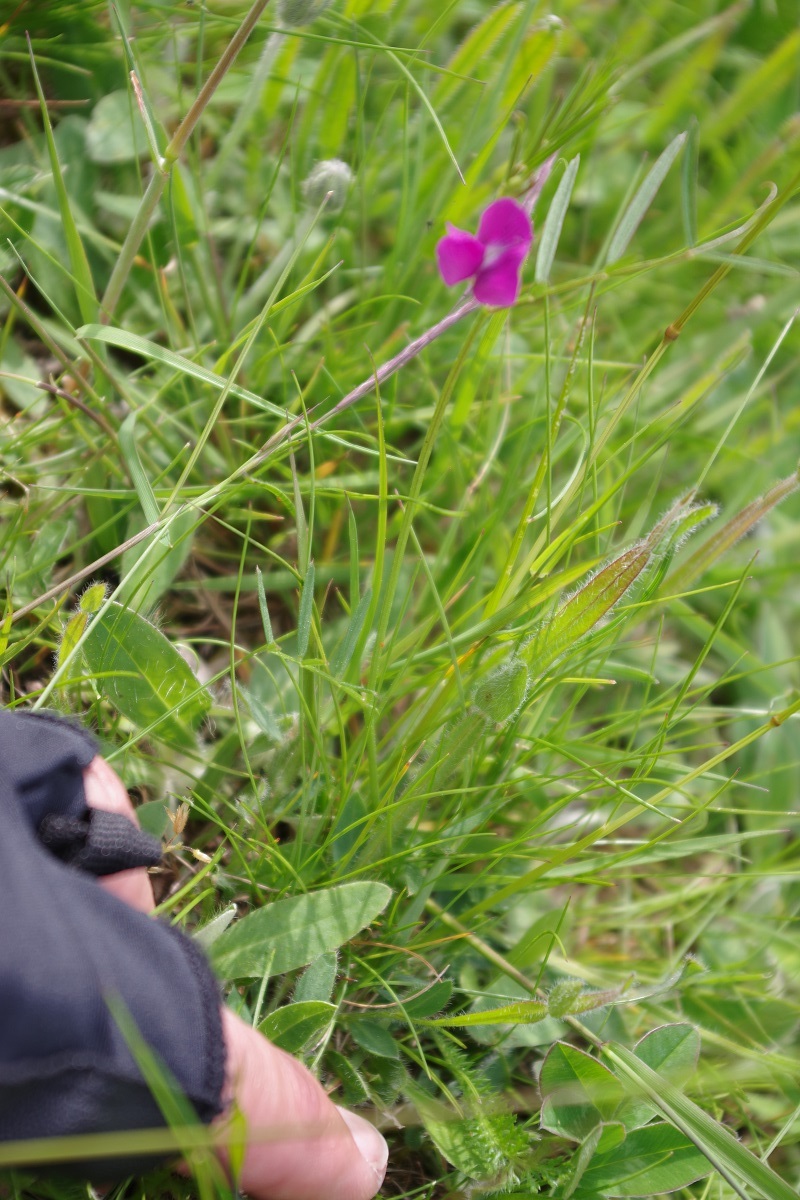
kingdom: Plantae
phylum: Tracheophyta
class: Magnoliopsida
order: Fabales
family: Fabaceae
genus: Vicia
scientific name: Vicia sativa
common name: Garden vetch
